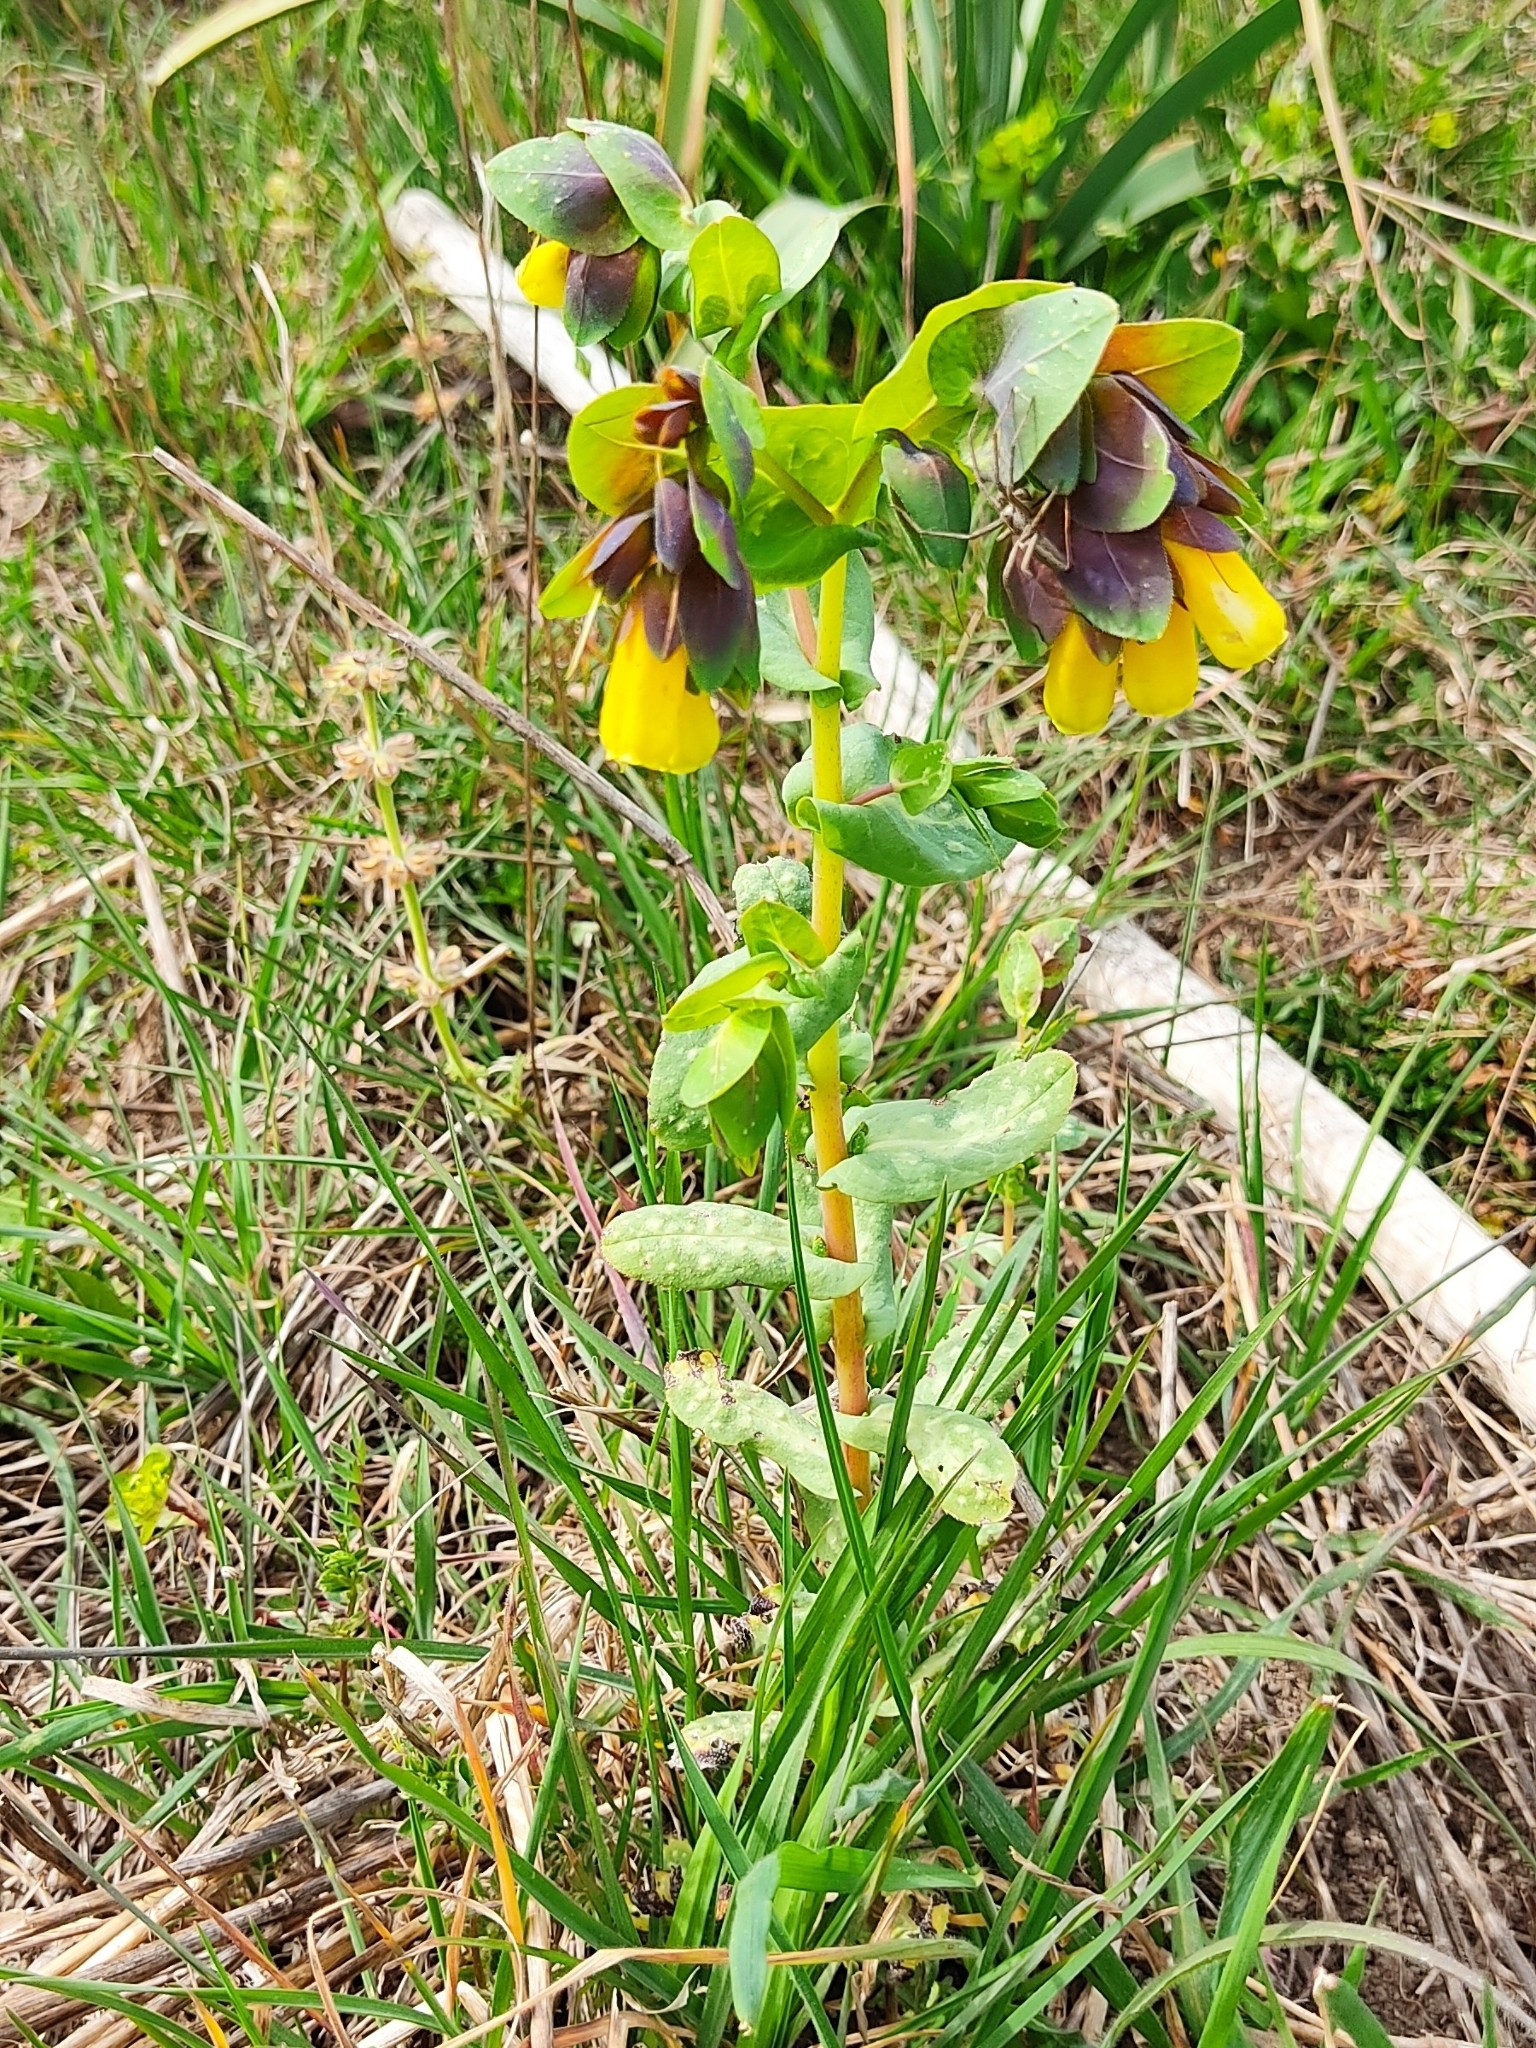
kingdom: Plantae
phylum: Tracheophyta
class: Magnoliopsida
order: Boraginales
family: Boraginaceae
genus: Cerinthe
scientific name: Cerinthe major
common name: Greater honeywort
